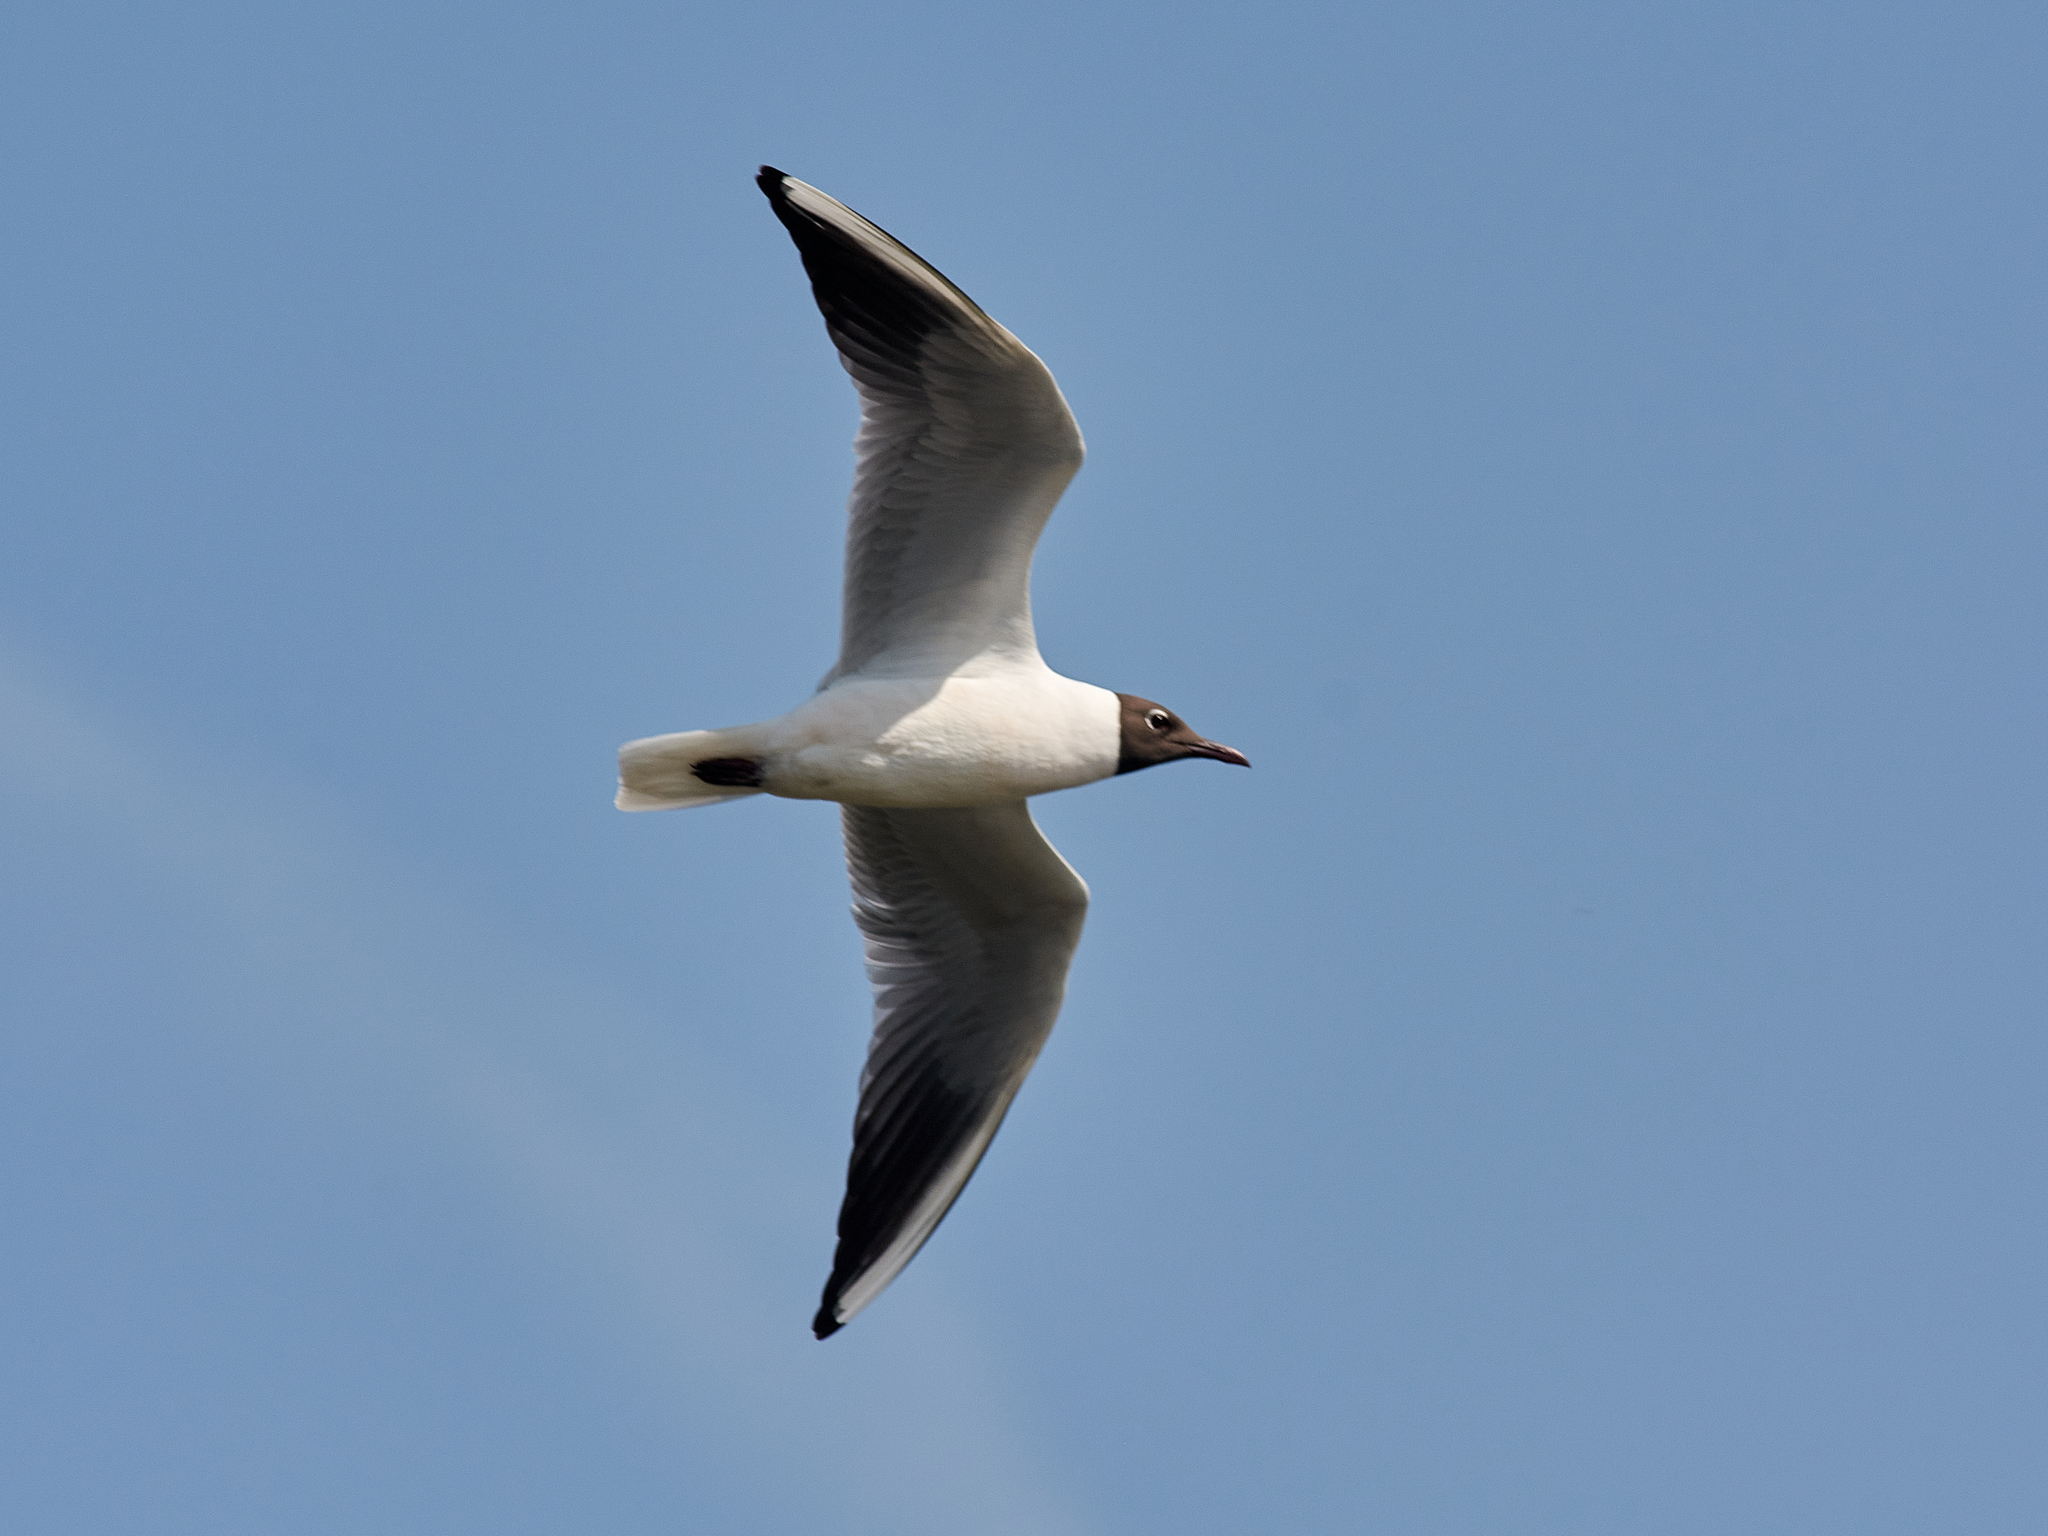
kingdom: Animalia
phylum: Chordata
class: Aves
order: Charadriiformes
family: Laridae
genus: Chroicocephalus
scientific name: Chroicocephalus ridibundus
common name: Black-headed gull
